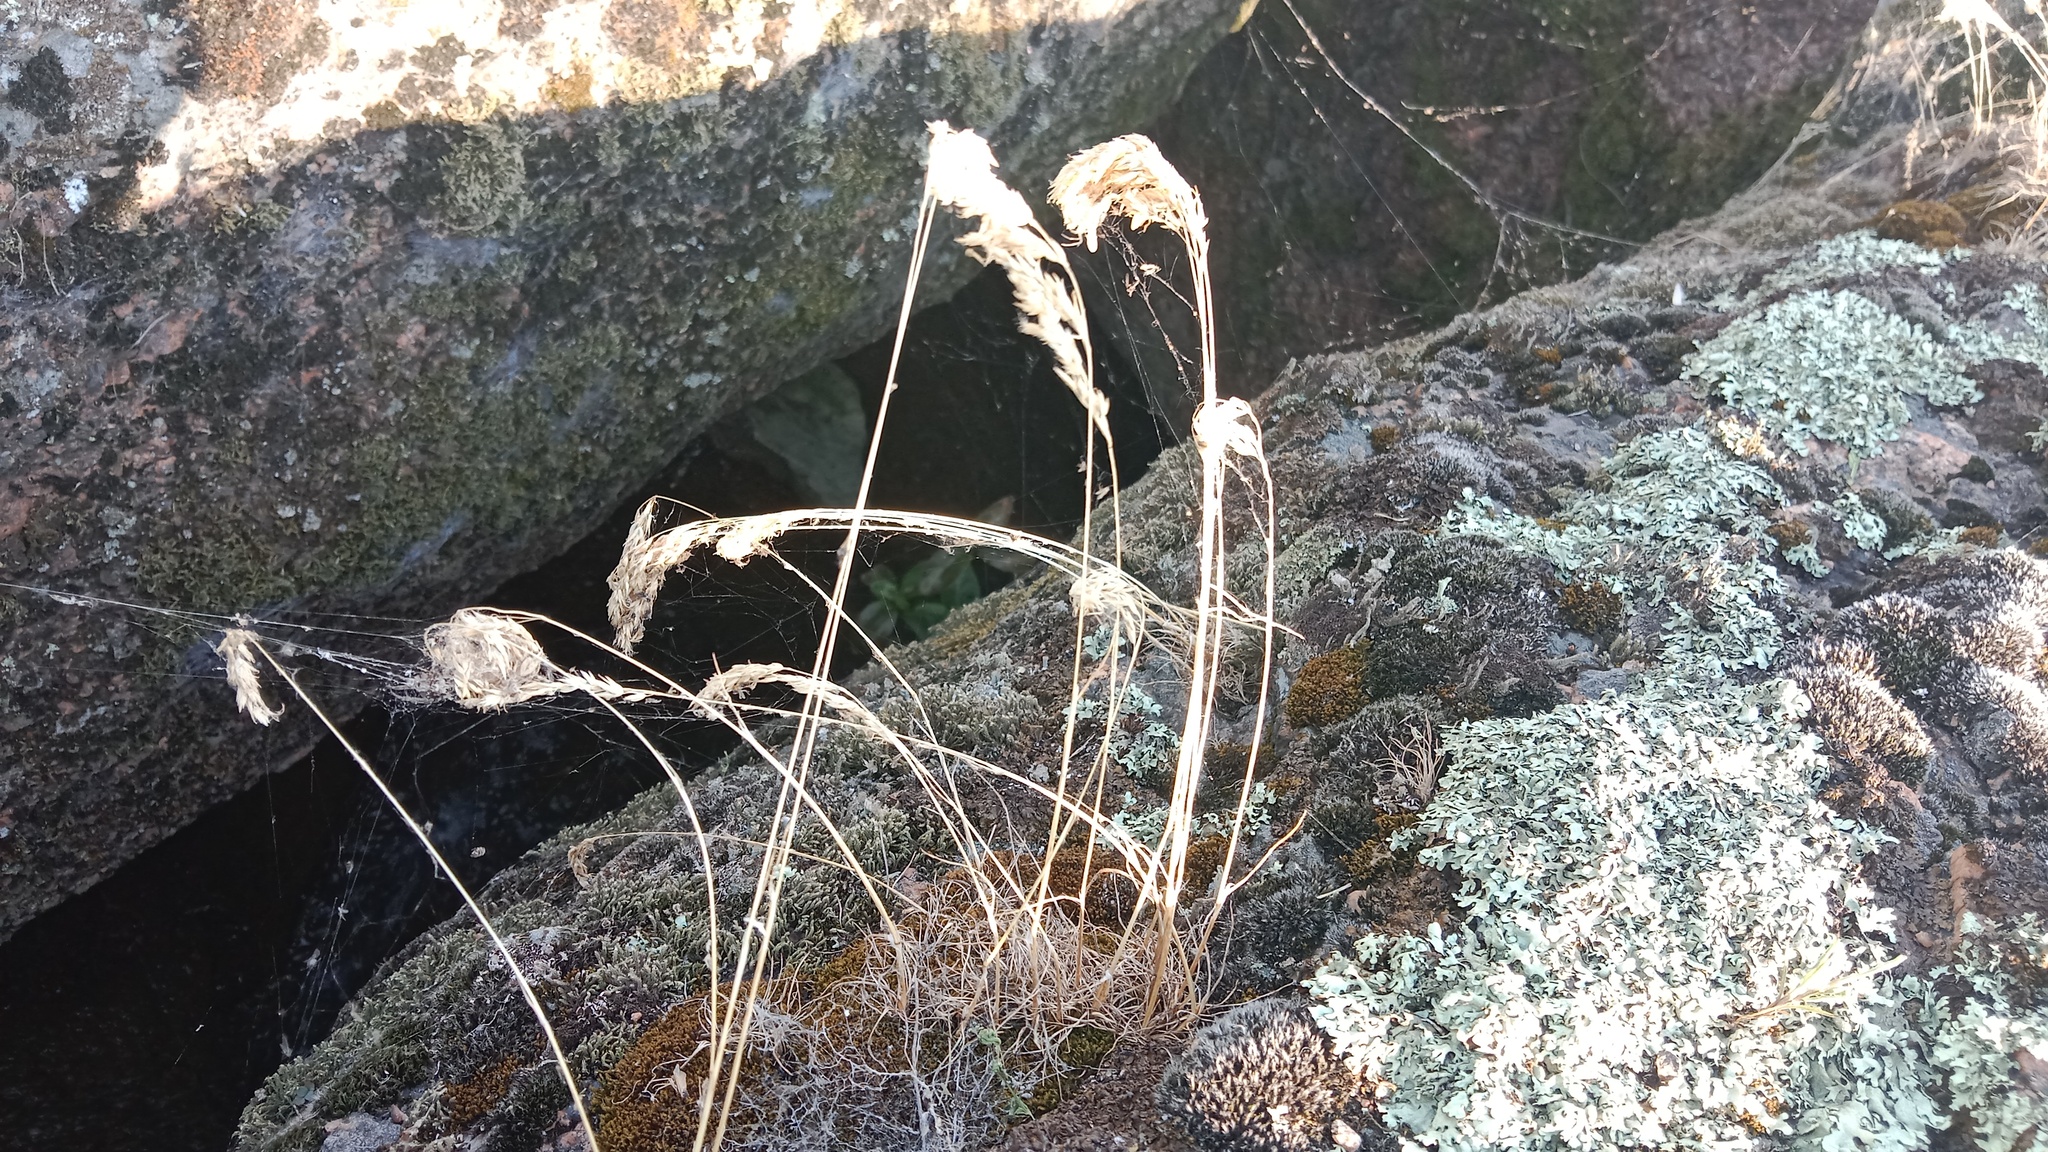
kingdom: Plantae
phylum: Tracheophyta
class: Liliopsida
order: Poales
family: Poaceae
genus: Poa
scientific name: Poa bulbosa
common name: Bulbous bluegrass
